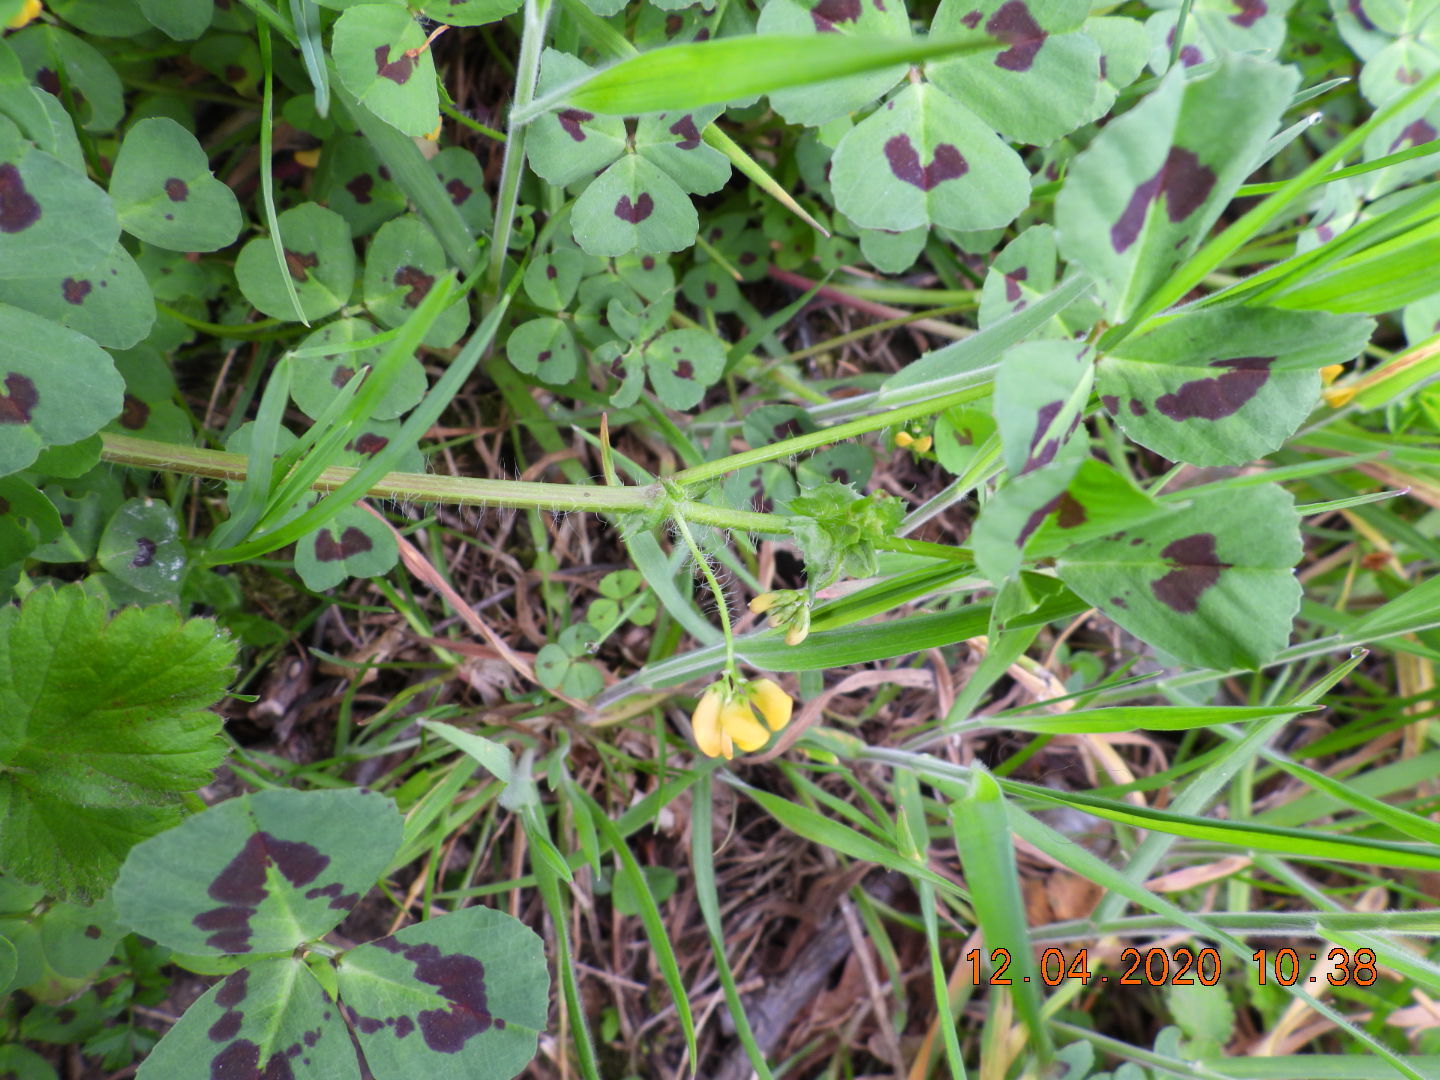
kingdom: Plantae
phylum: Tracheophyta
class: Magnoliopsida
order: Fabales
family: Fabaceae
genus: Medicago
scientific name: Medicago arabica
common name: Spotted medick
